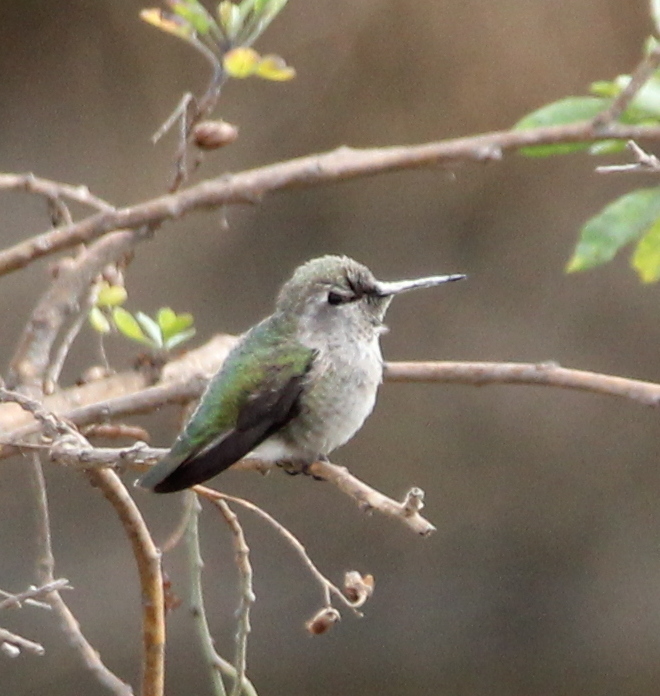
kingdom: Animalia
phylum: Chordata
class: Aves
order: Apodiformes
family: Trochilidae
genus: Calypte
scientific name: Calypte anna
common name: Anna's hummingbird
